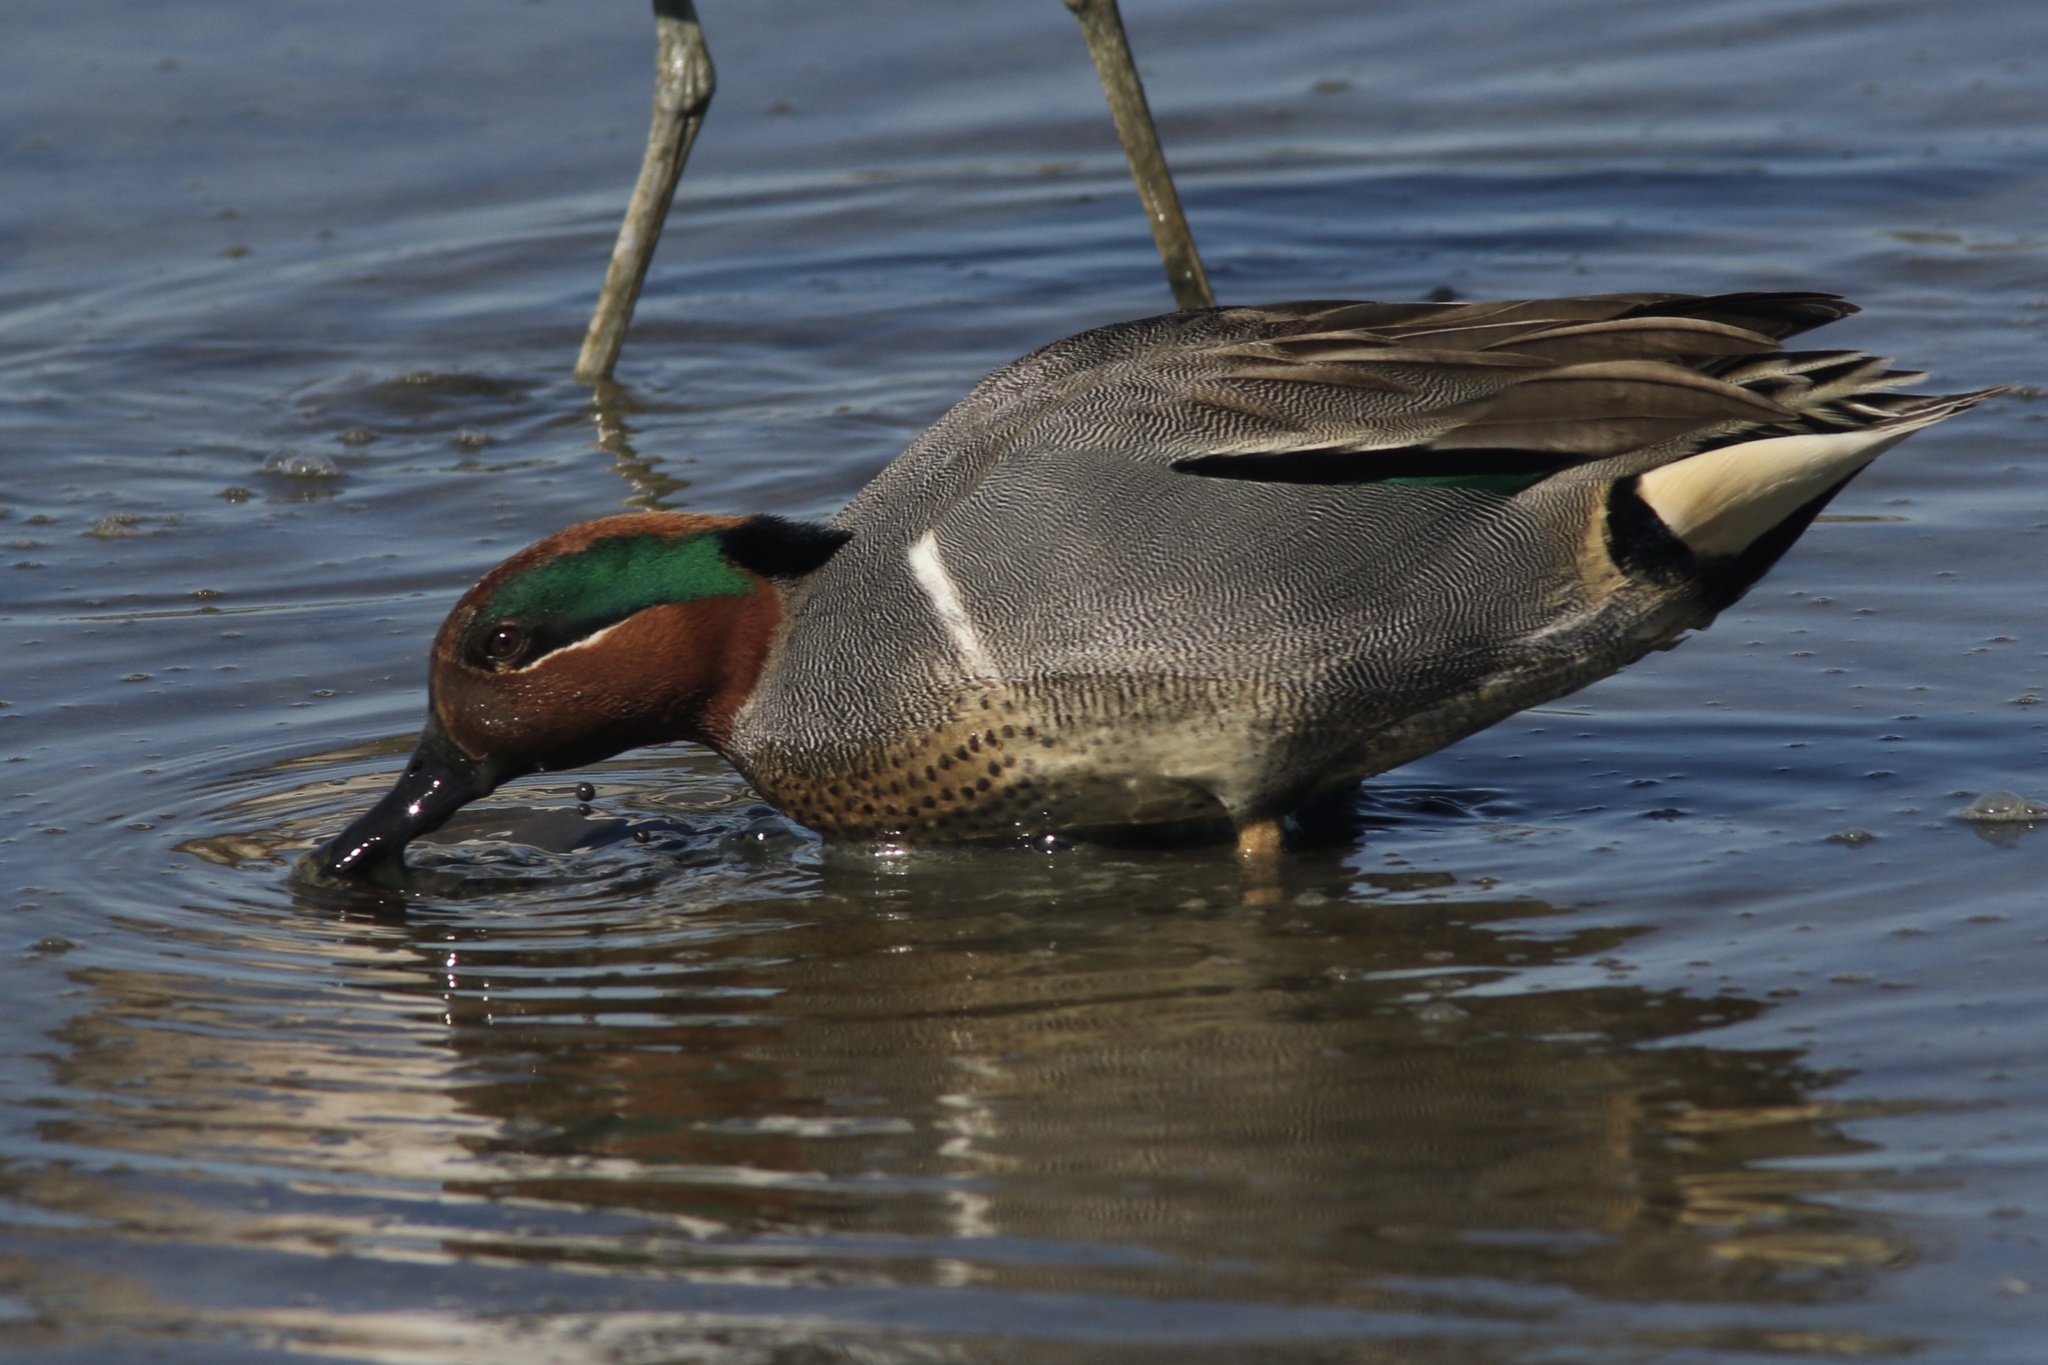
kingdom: Animalia
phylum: Chordata
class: Aves
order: Anseriformes
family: Anatidae
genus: Anas
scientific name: Anas crecca
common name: Eurasian teal
